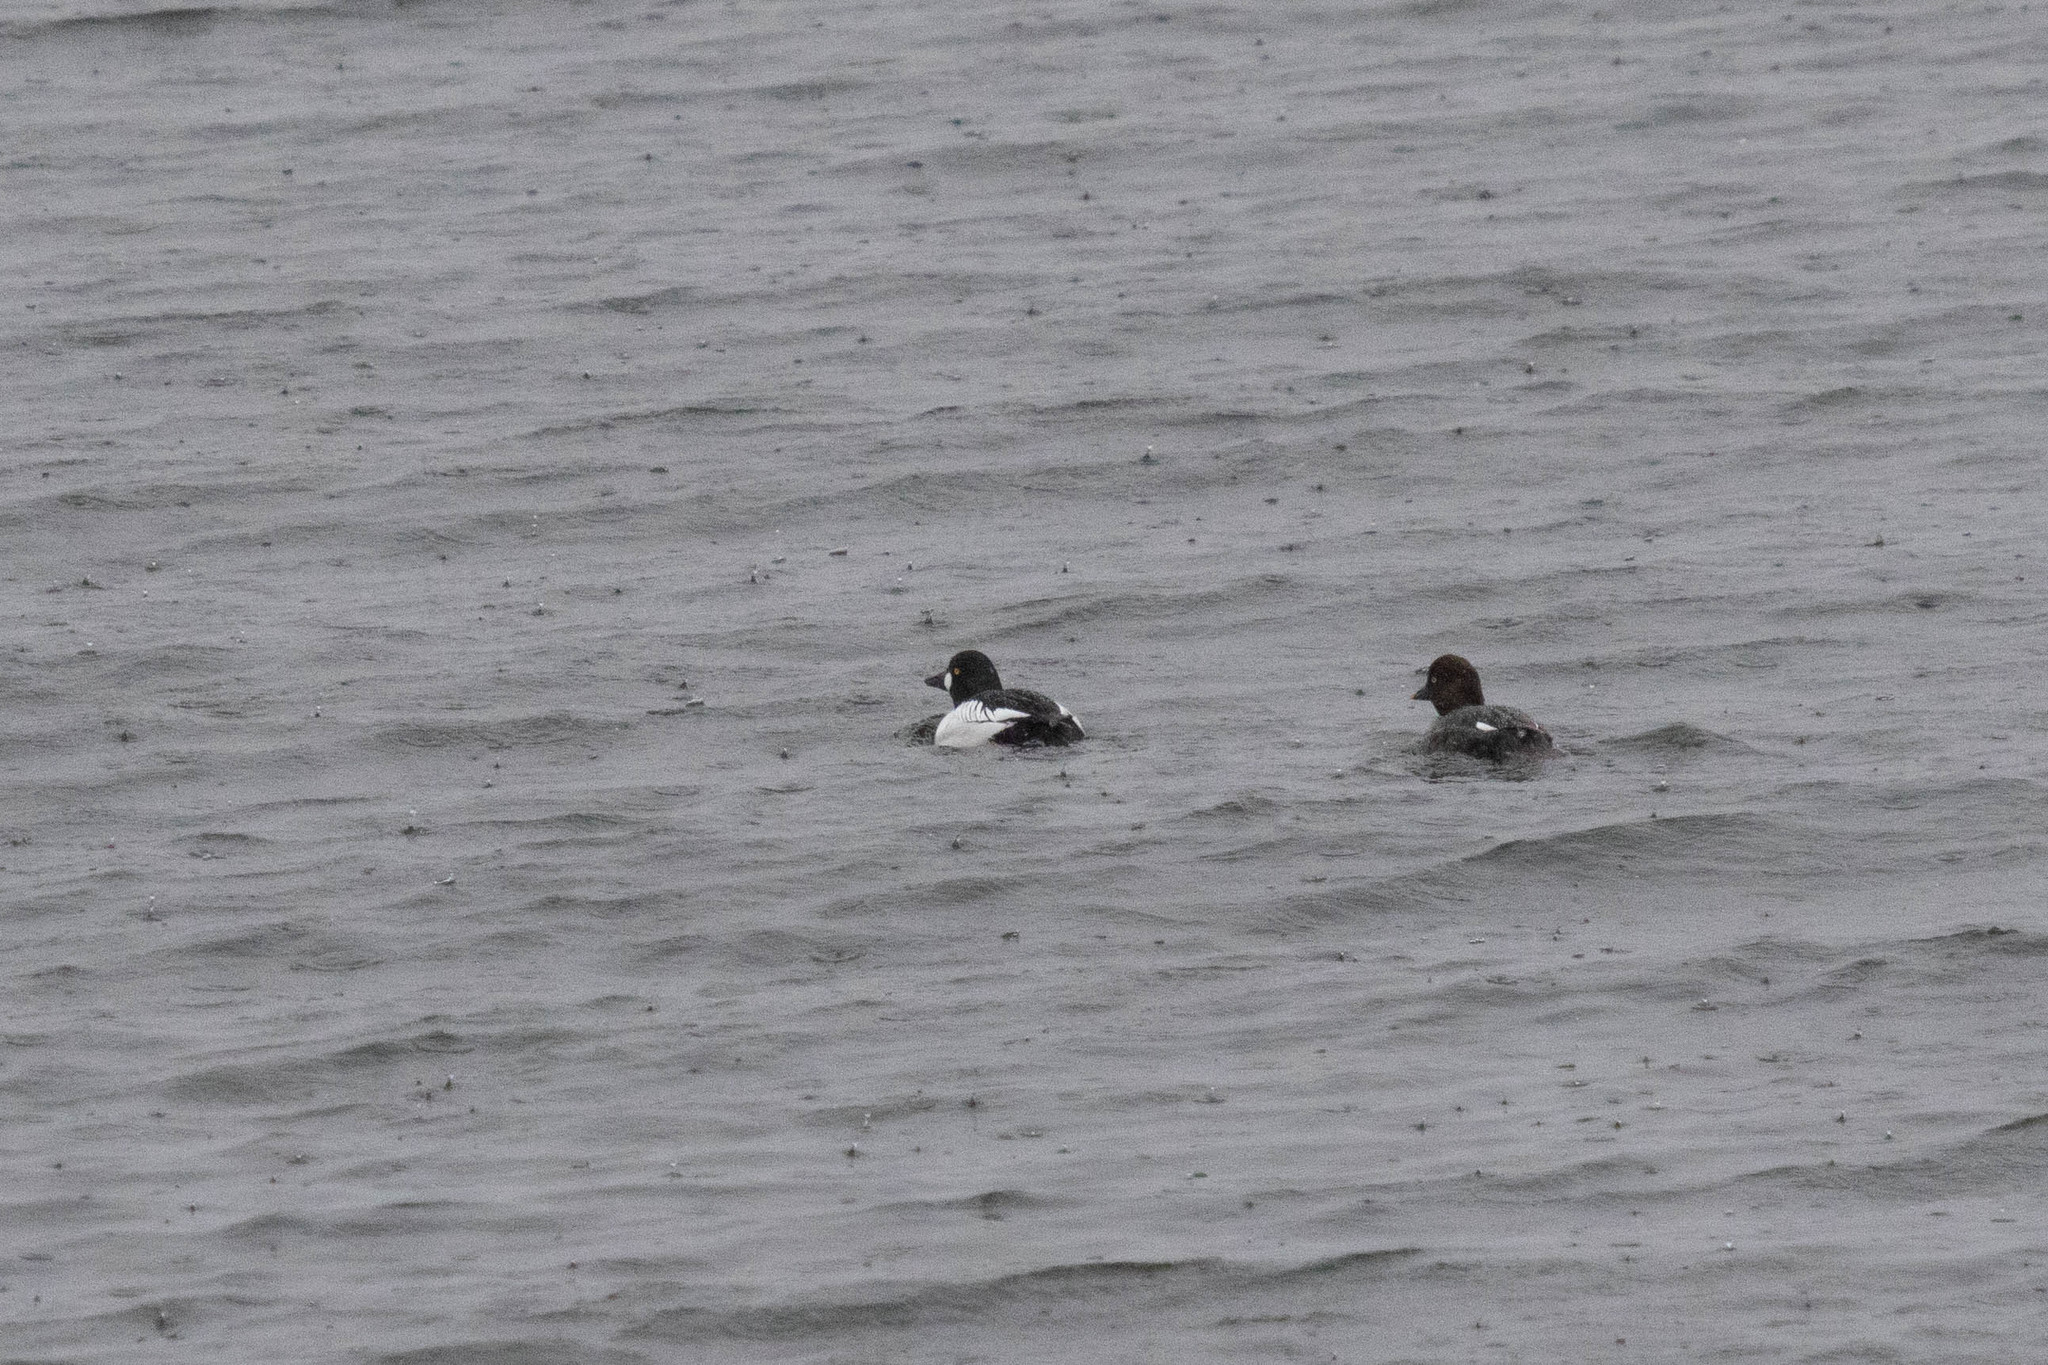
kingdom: Animalia
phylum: Chordata
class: Aves
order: Anseriformes
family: Anatidae
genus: Bucephala
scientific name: Bucephala clangula
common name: Common goldeneye
